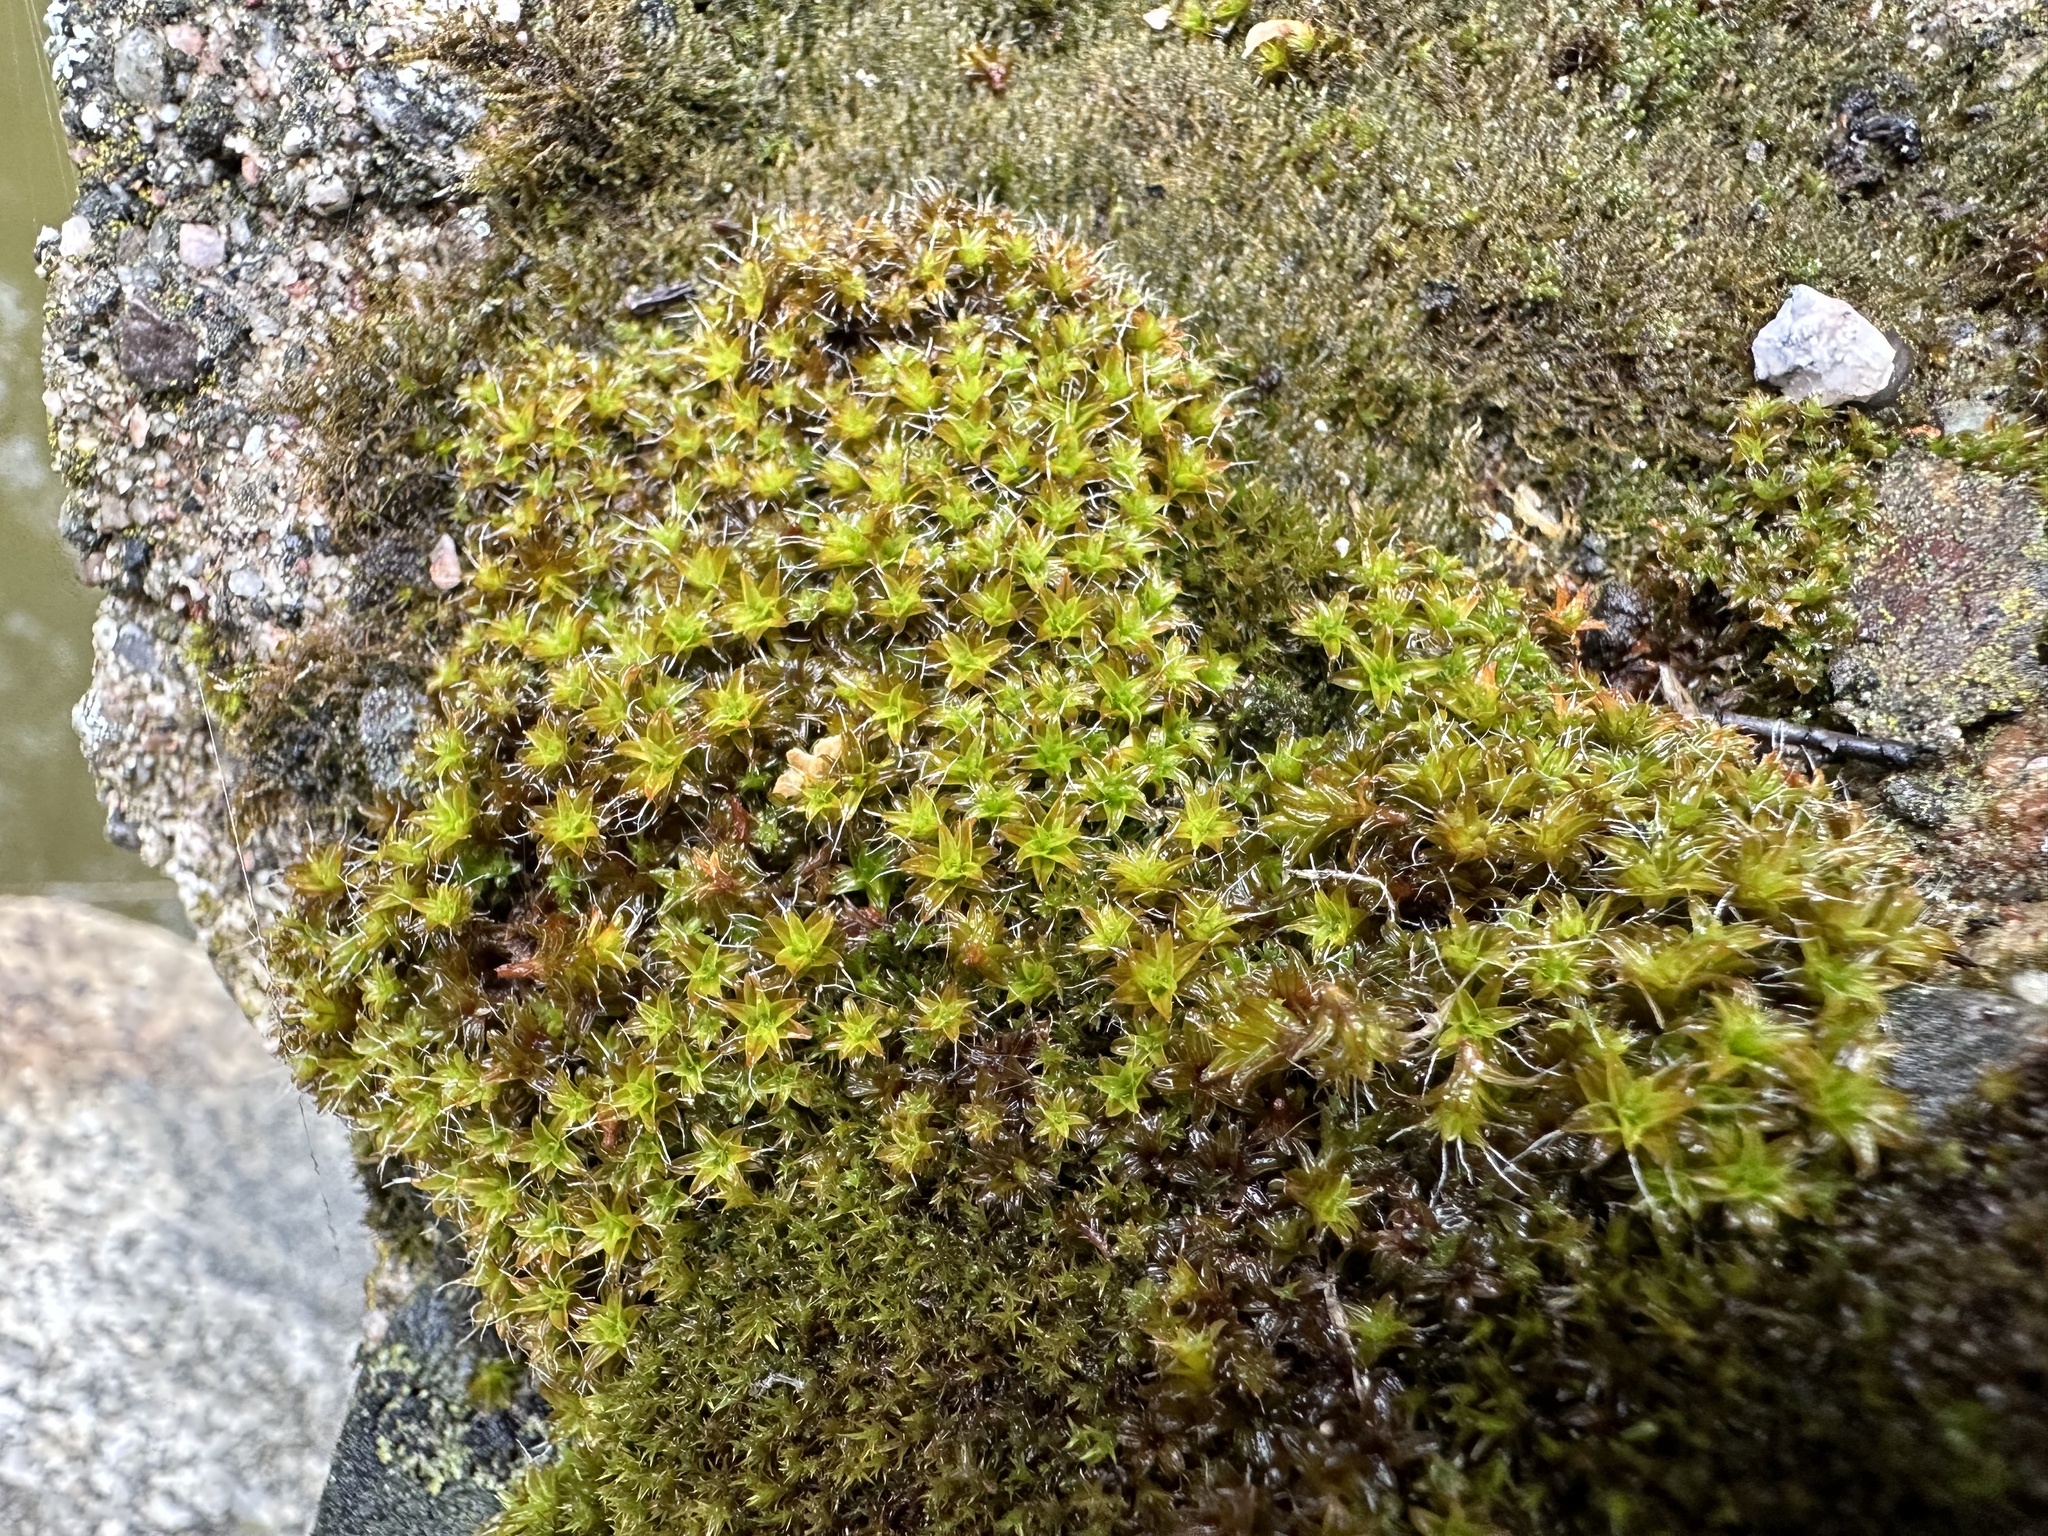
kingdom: Plantae
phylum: Bryophyta
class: Bryopsida
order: Pottiales
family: Pottiaceae
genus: Syntrichia
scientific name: Syntrichia ruralis
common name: Sidewalk screw moss
